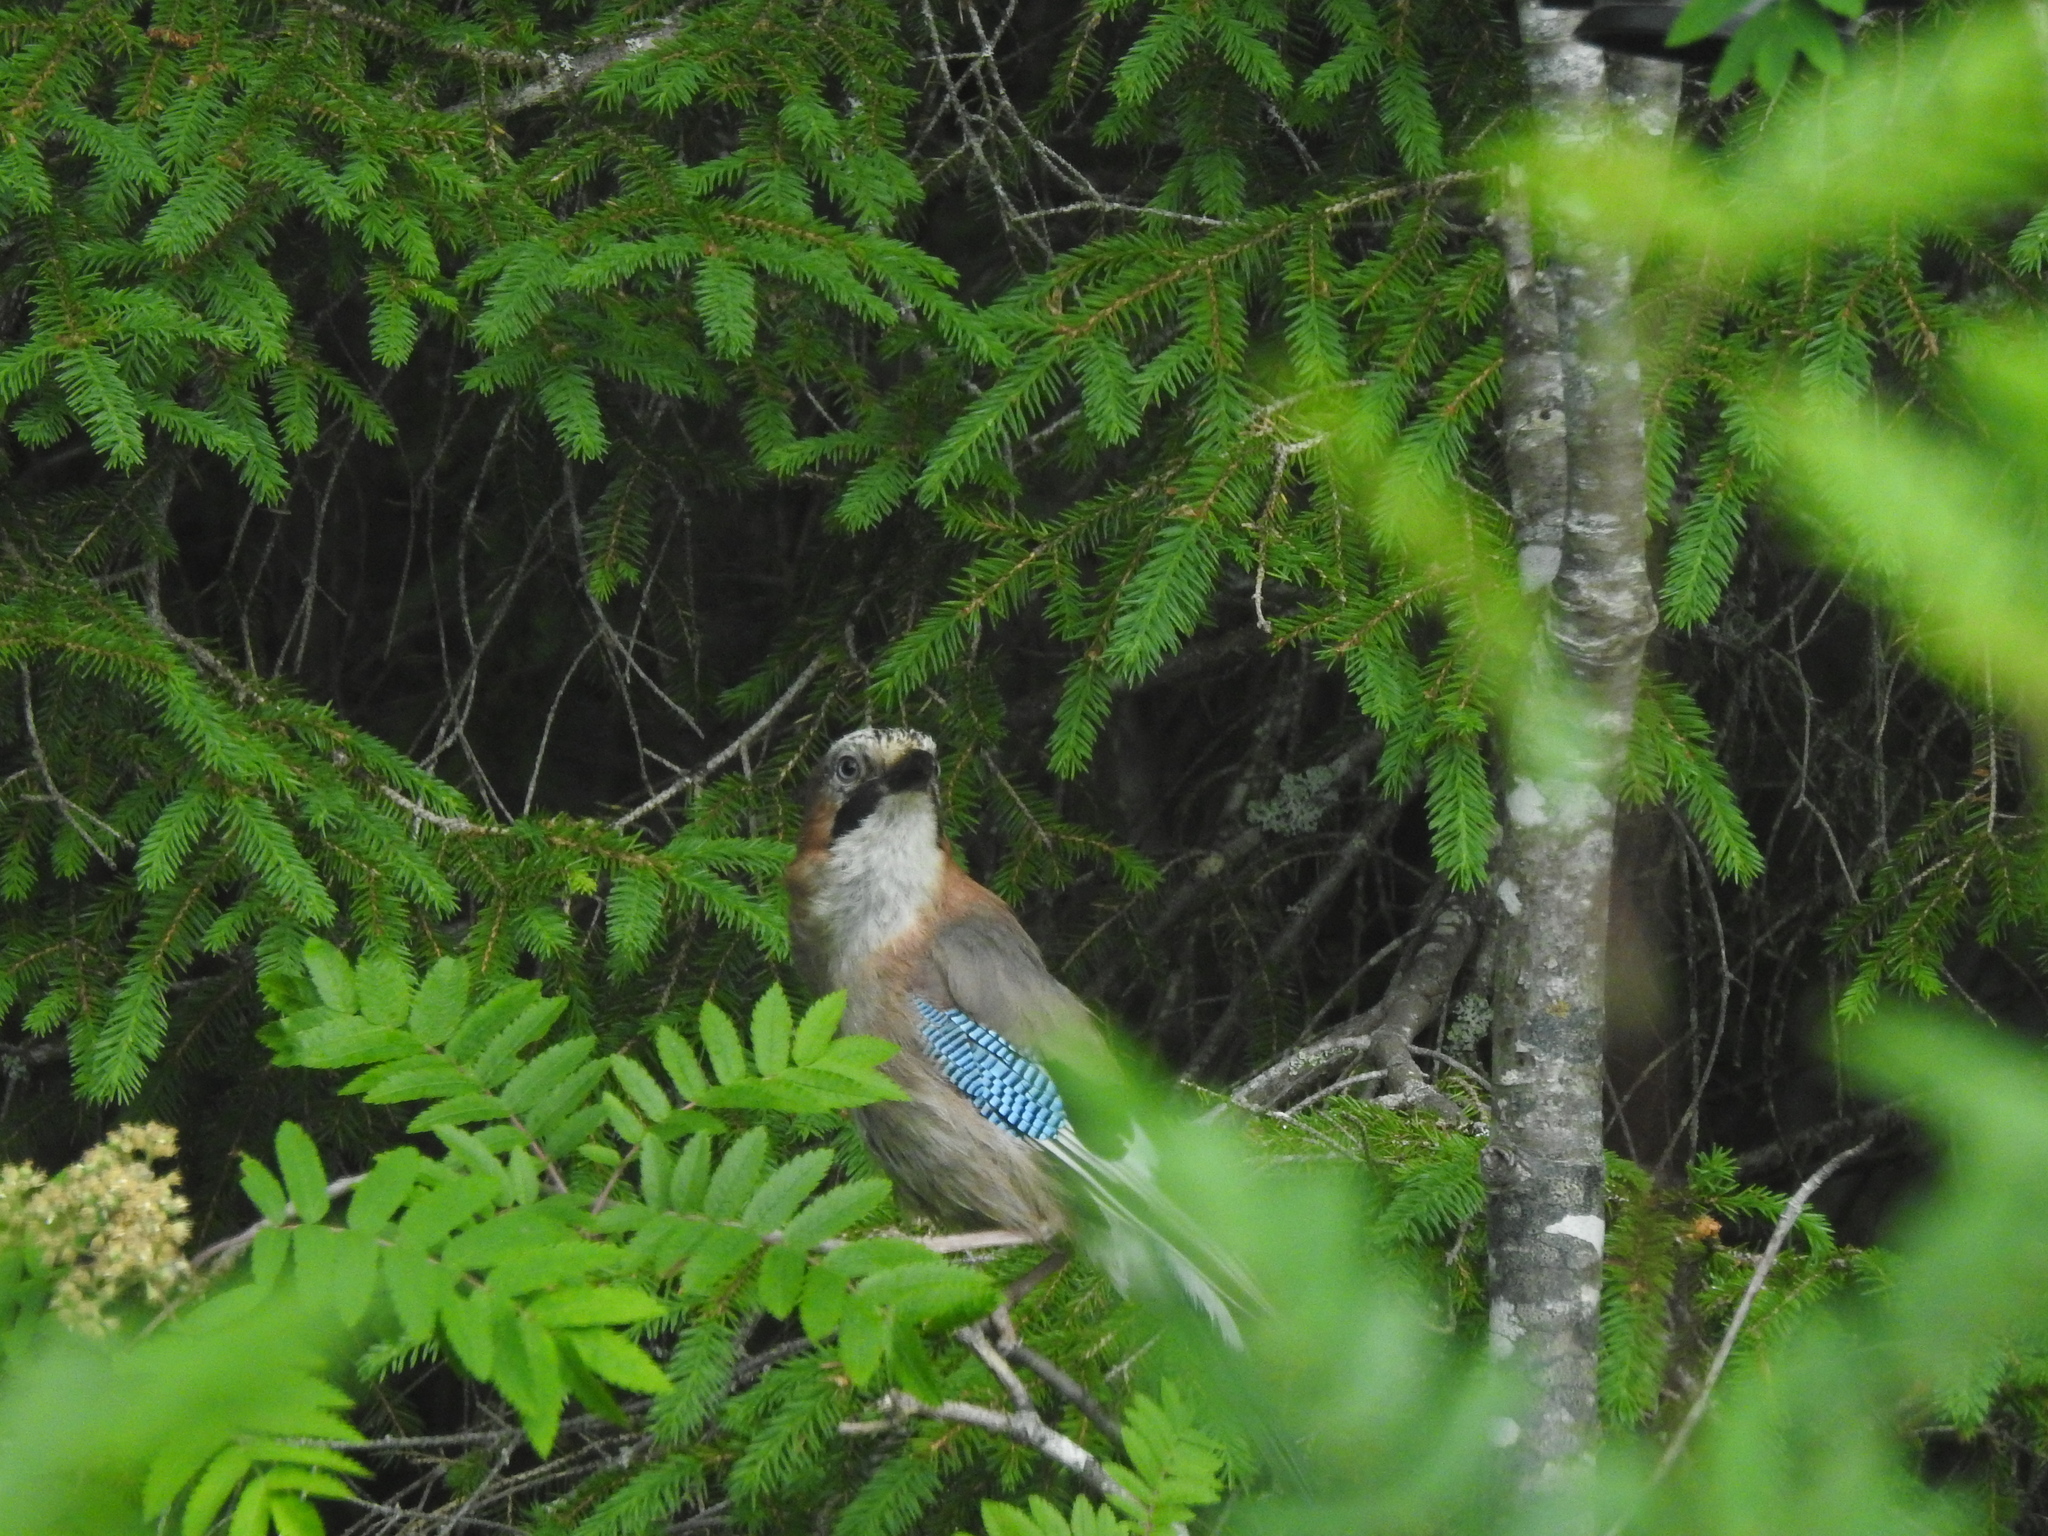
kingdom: Animalia
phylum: Chordata
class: Aves
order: Passeriformes
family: Corvidae
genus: Garrulus
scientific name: Garrulus glandarius
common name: Eurasian jay
